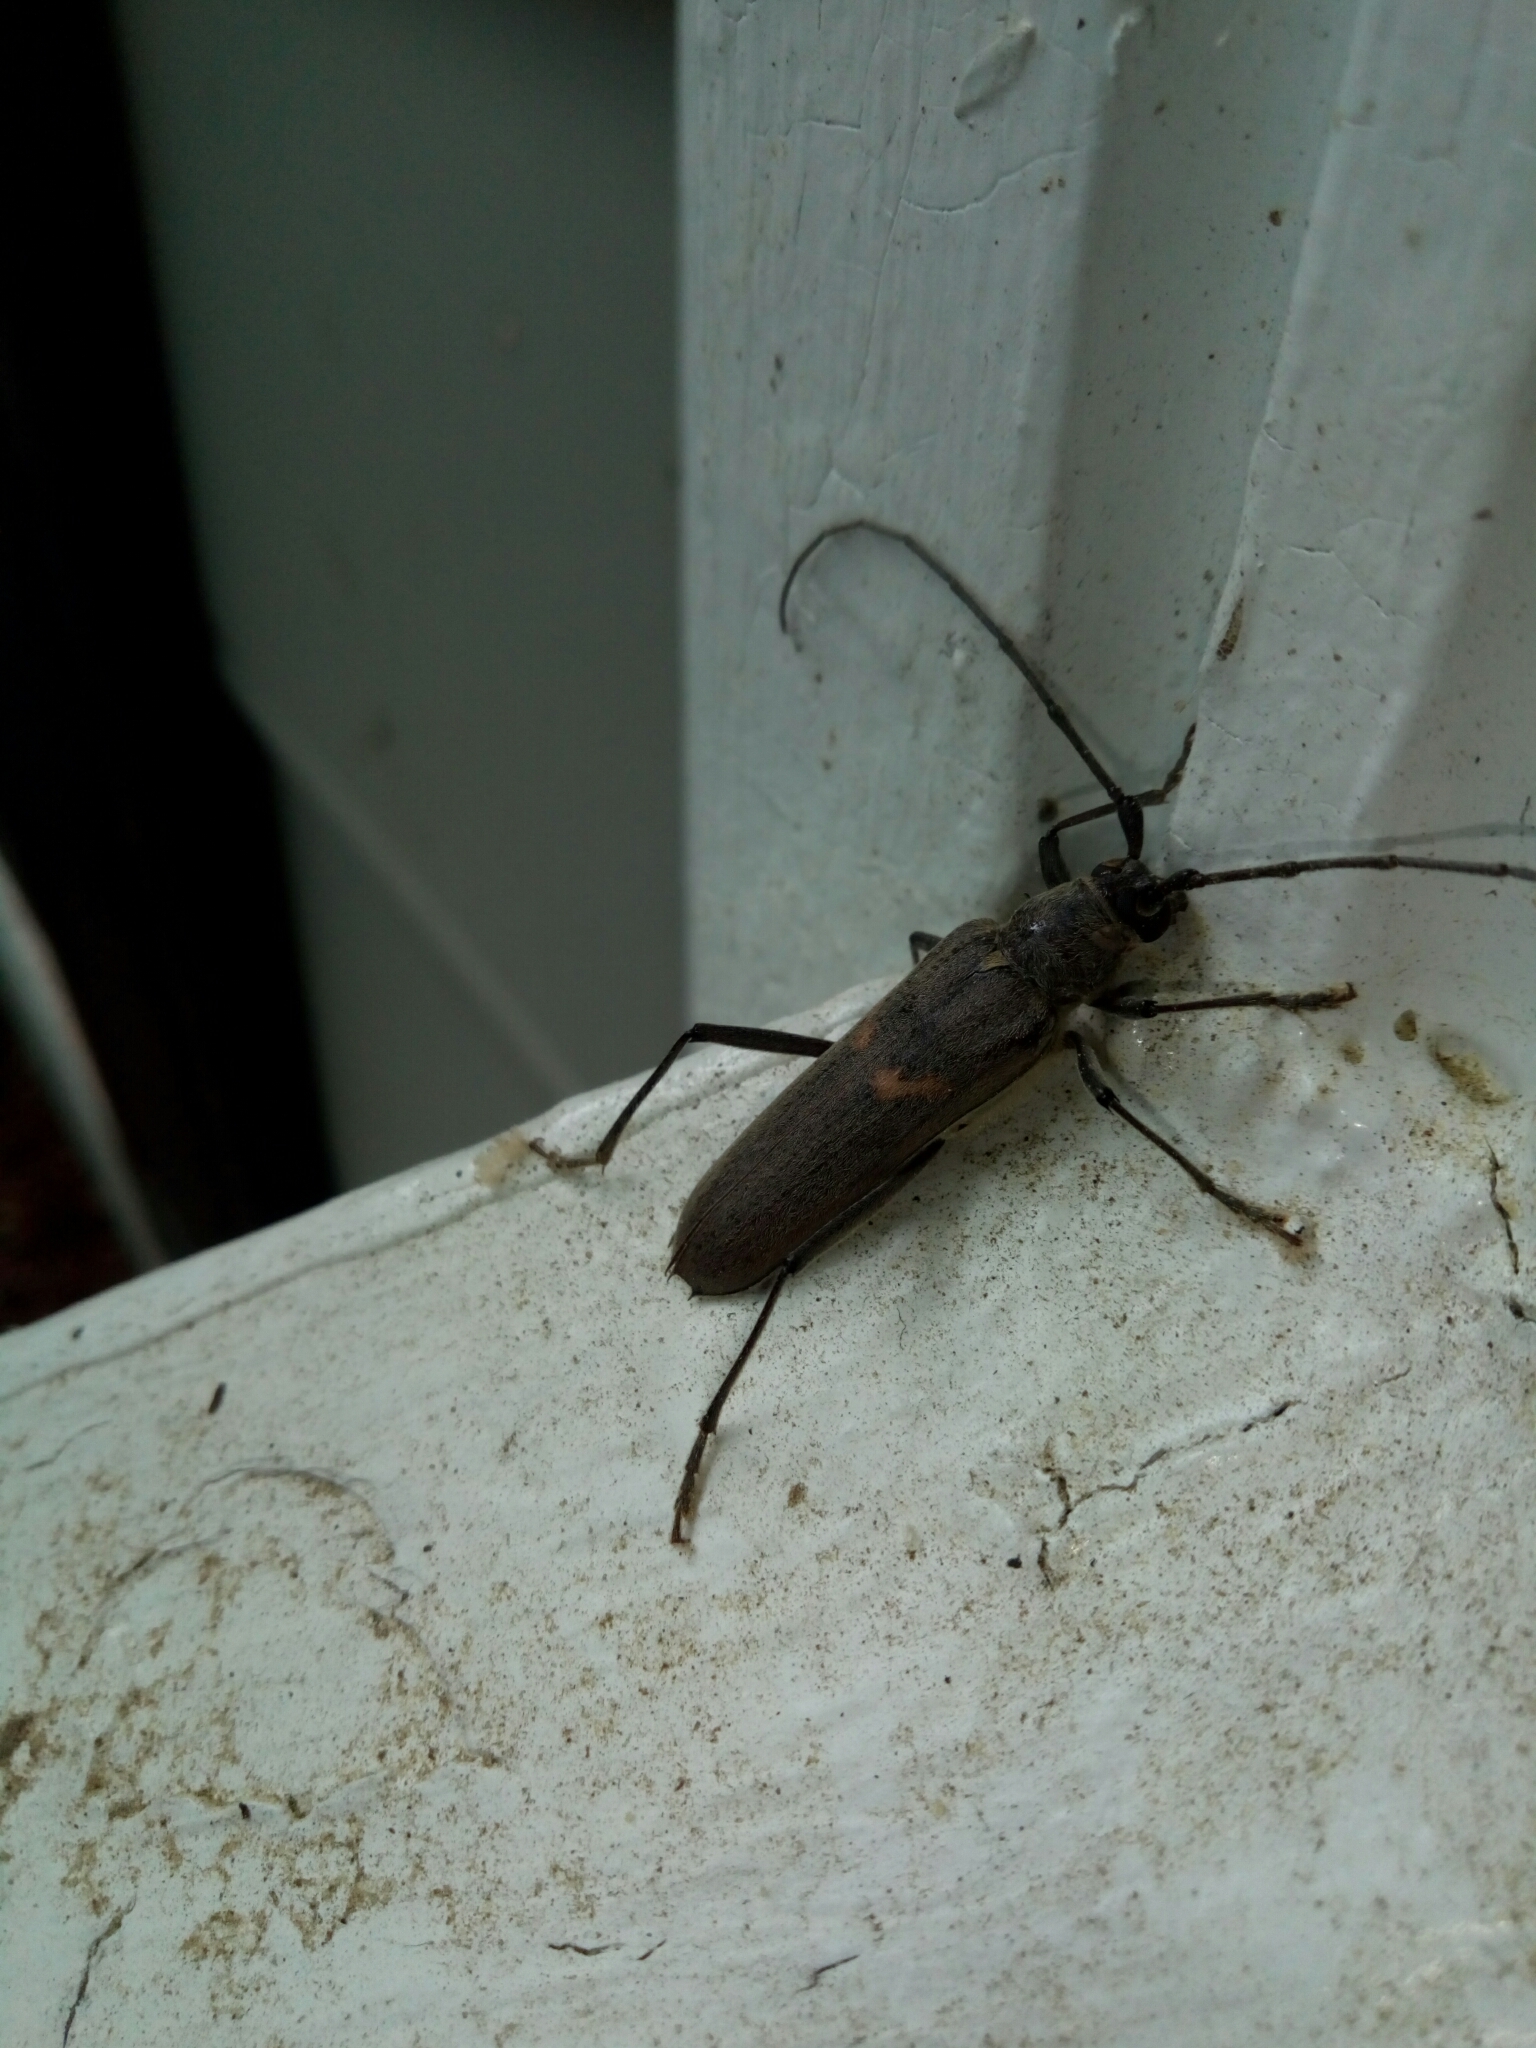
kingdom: Animalia
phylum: Arthropoda
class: Insecta
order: Coleoptera
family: Cerambycidae
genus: Knulliana
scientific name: Knulliana cincta
